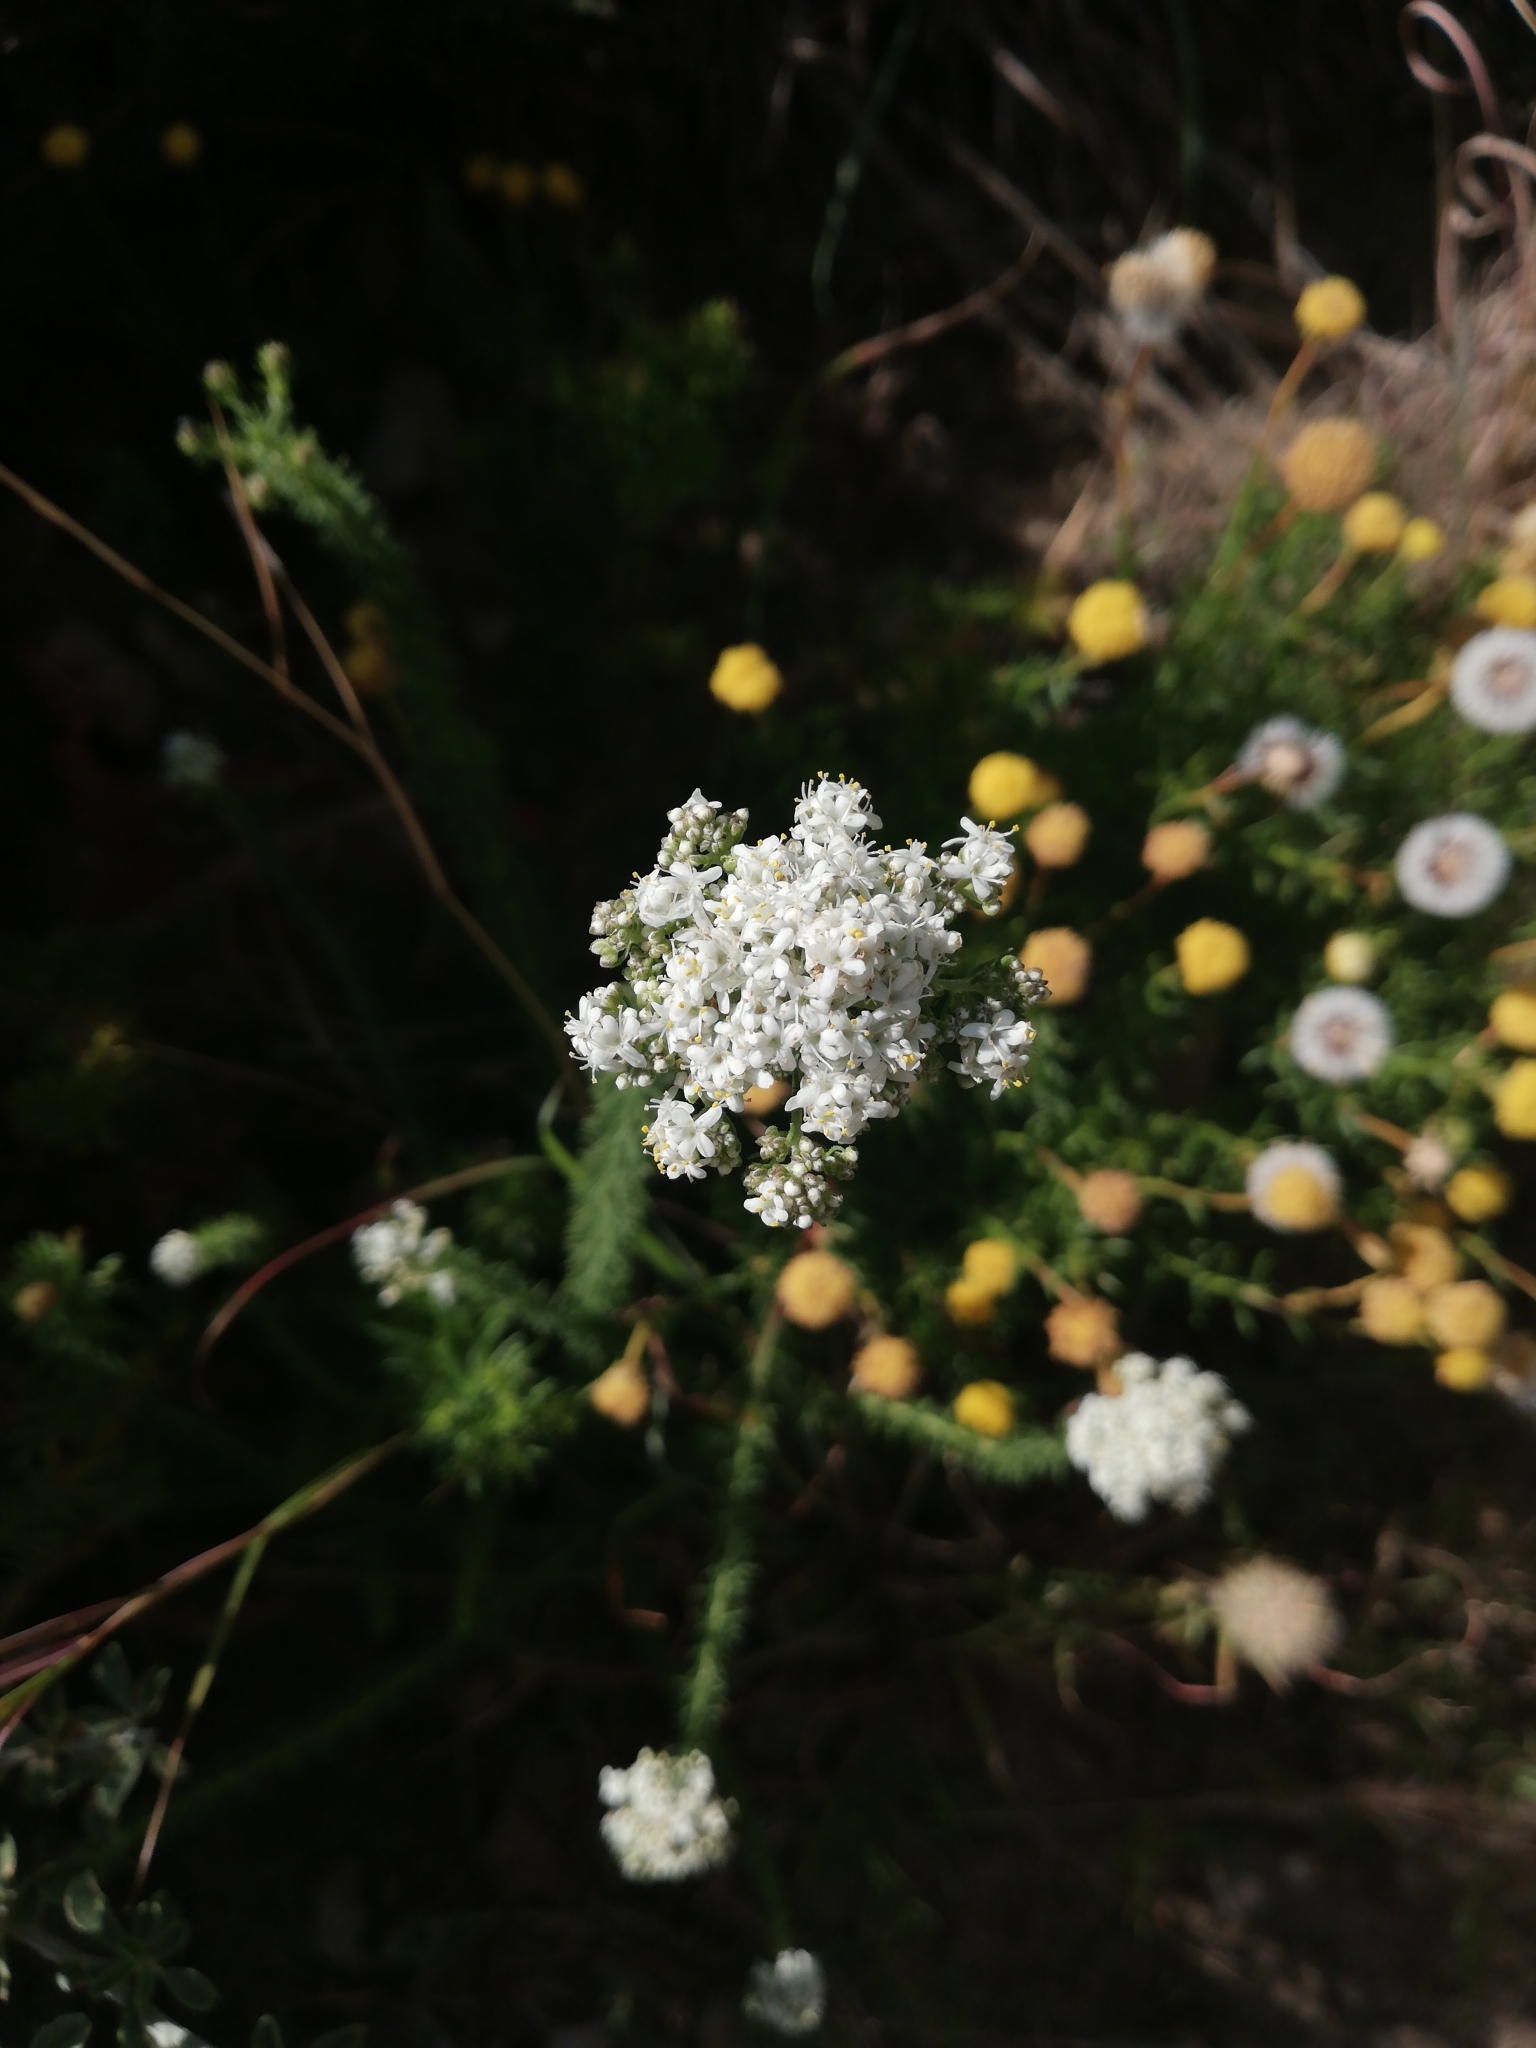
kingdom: Plantae
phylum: Tracheophyta
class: Magnoliopsida
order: Lamiales
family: Scrophulariaceae
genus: Selago
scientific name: Selago corymbosa
